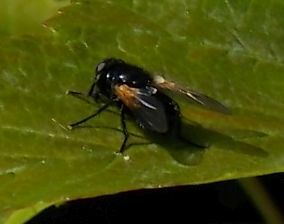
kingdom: Animalia
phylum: Arthropoda
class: Insecta
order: Diptera
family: Muscidae
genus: Mesembrina
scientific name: Mesembrina meridiana
